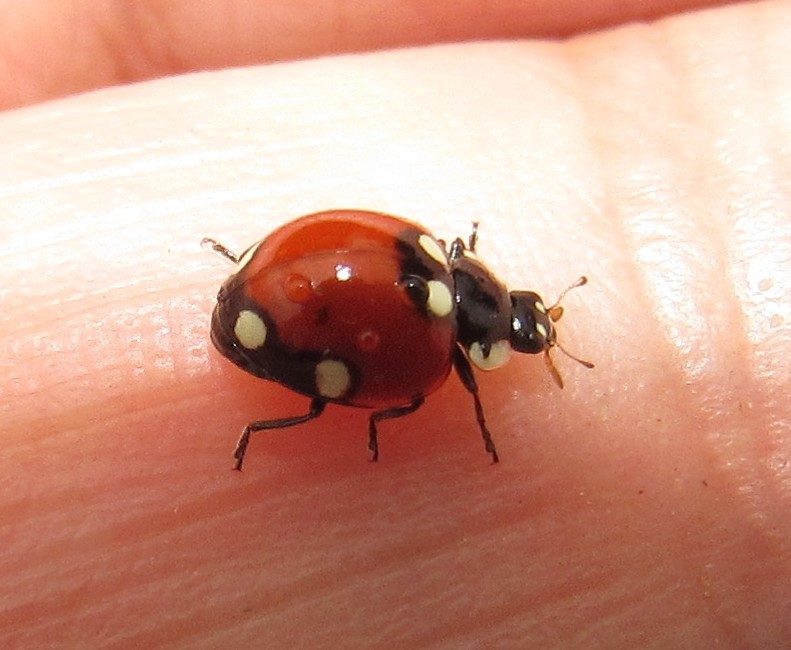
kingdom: Animalia
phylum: Arthropoda
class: Insecta
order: Coleoptera
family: Coccinellidae
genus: Cycloneda
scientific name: Cycloneda
